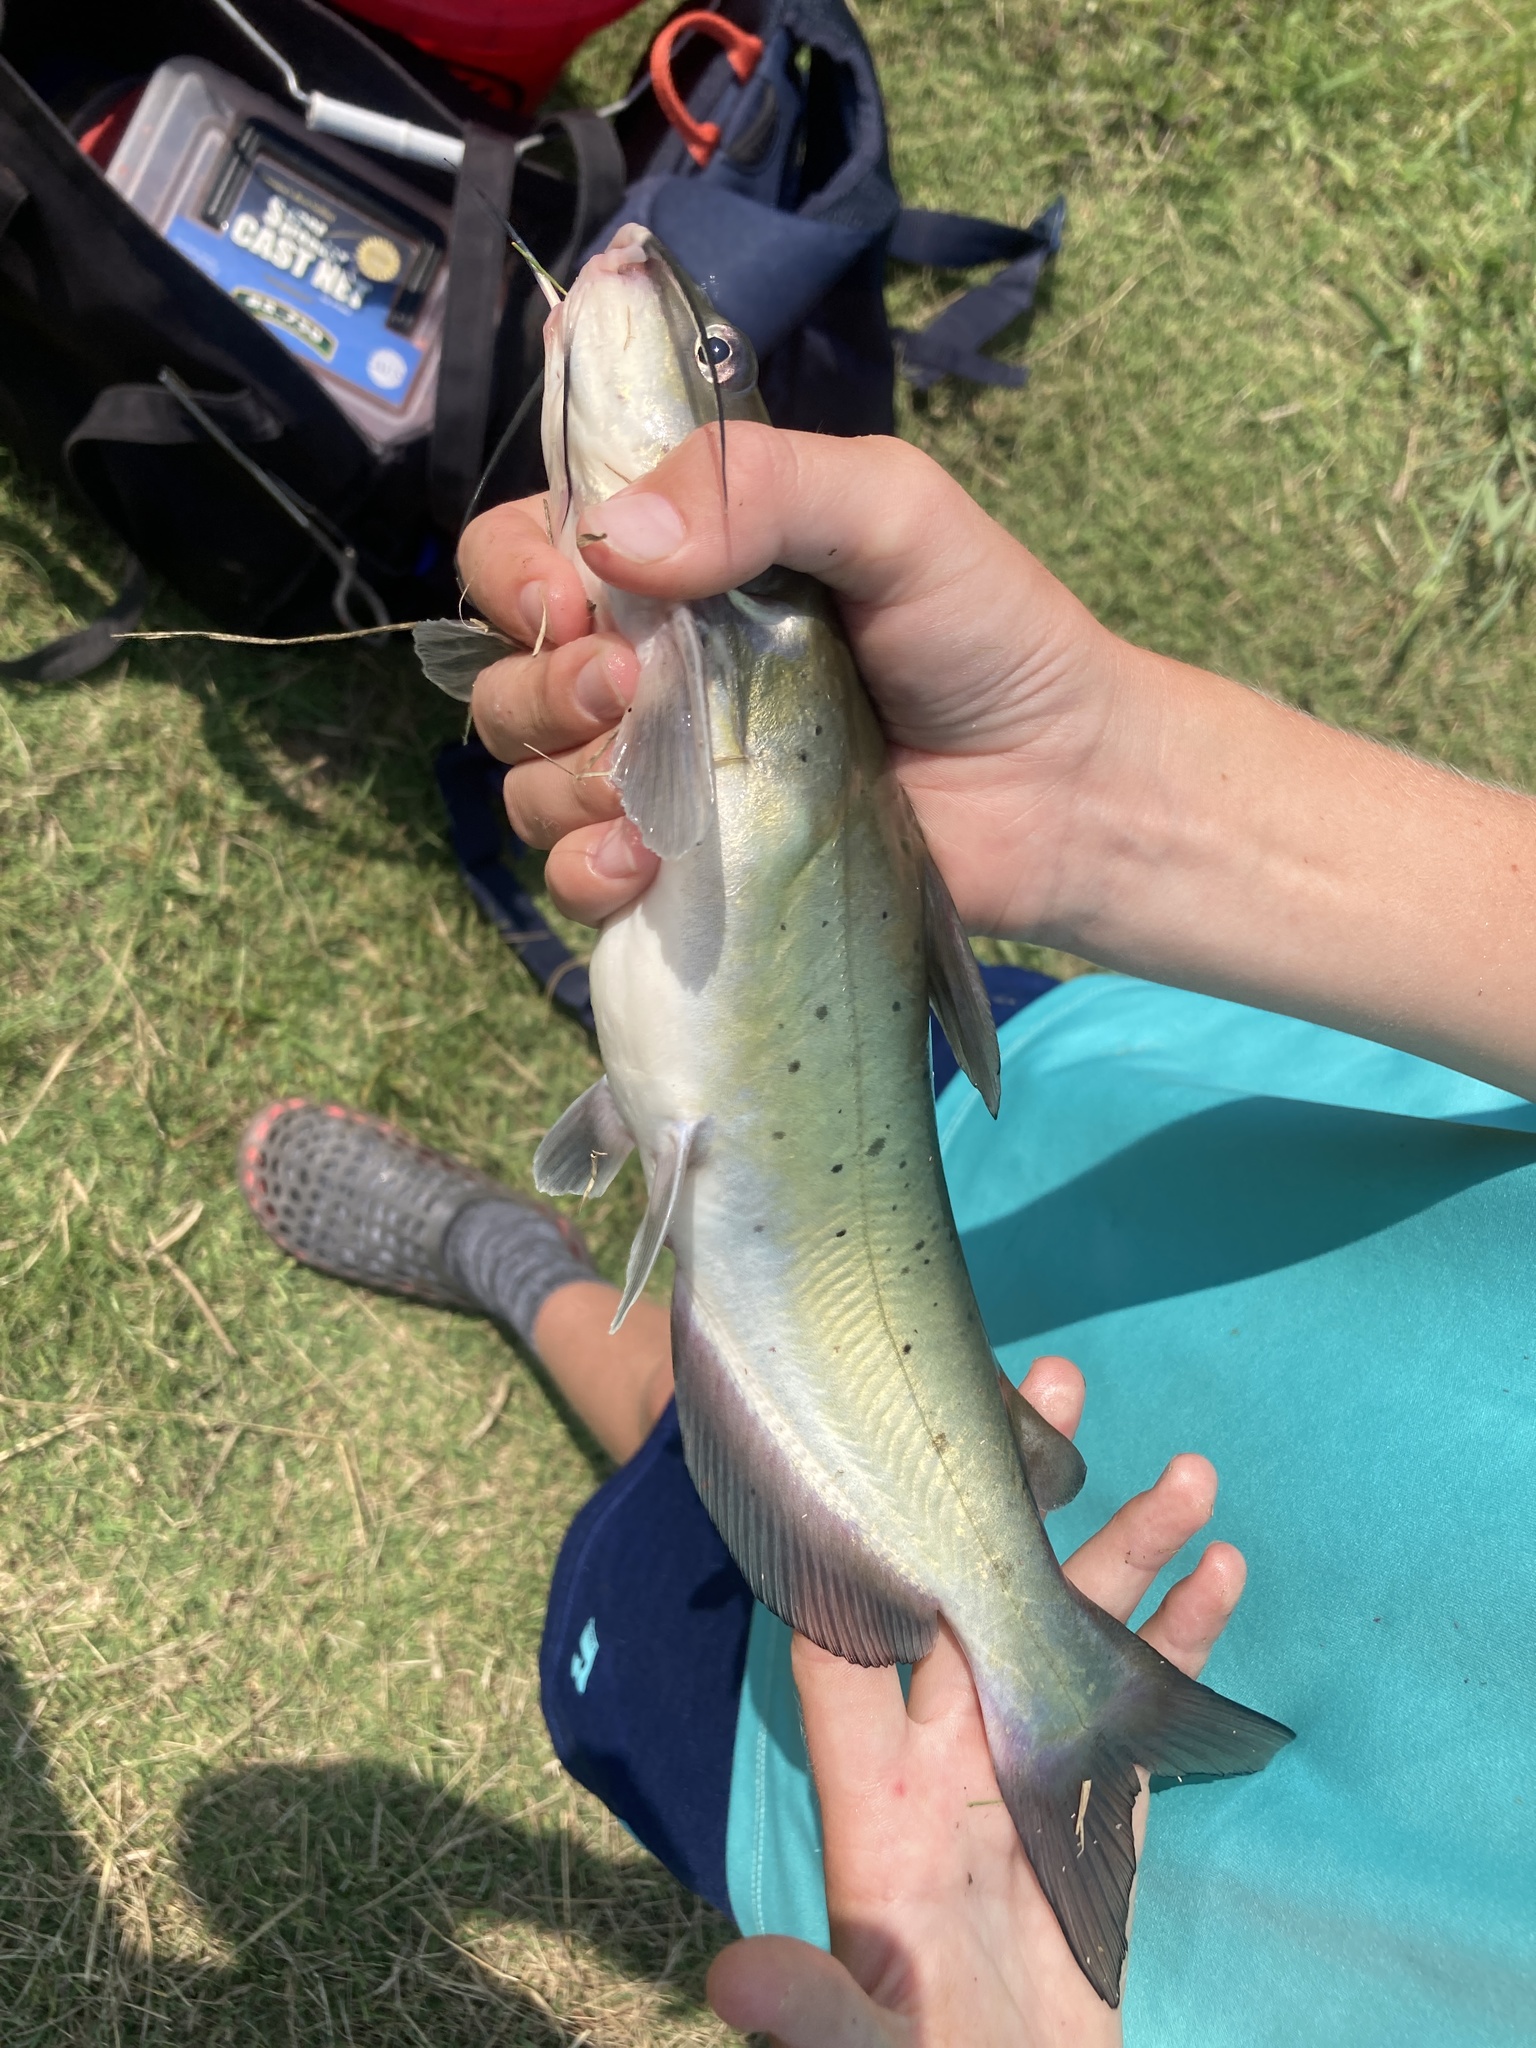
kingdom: Animalia
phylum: Chordata
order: Siluriformes
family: Ictaluridae
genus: Ictalurus
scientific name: Ictalurus punctatus
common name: Channel catfish
